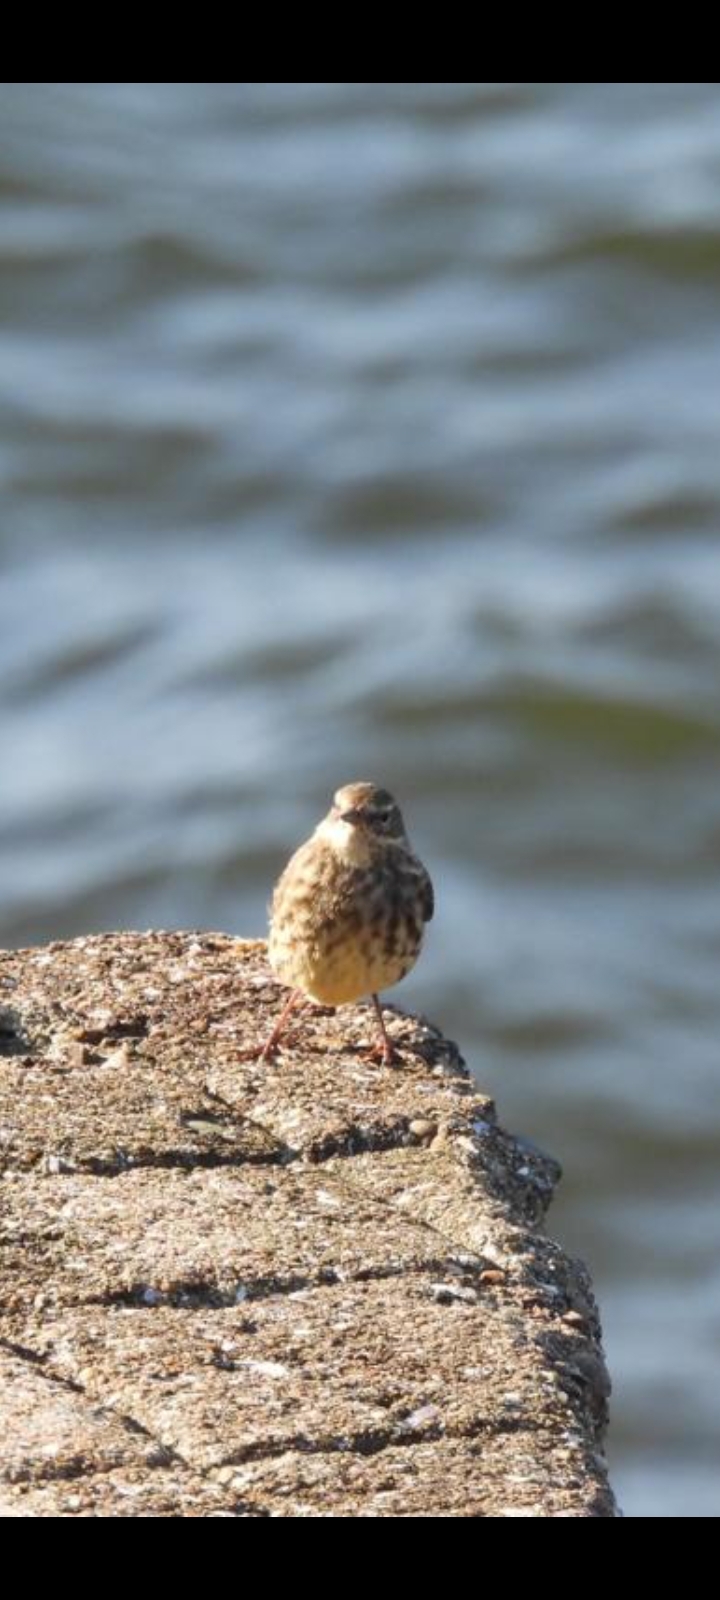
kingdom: Animalia
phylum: Chordata
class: Aves
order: Passeriformes
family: Motacillidae
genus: Anthus
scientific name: Anthus petrosus
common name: Eurasian rock pipit
